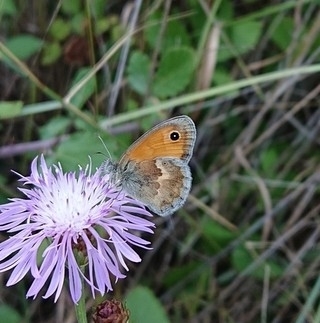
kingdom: Animalia
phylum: Arthropoda
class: Insecta
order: Lepidoptera
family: Nymphalidae
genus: Coenonympha
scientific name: Coenonympha pamphilus
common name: Small heath
